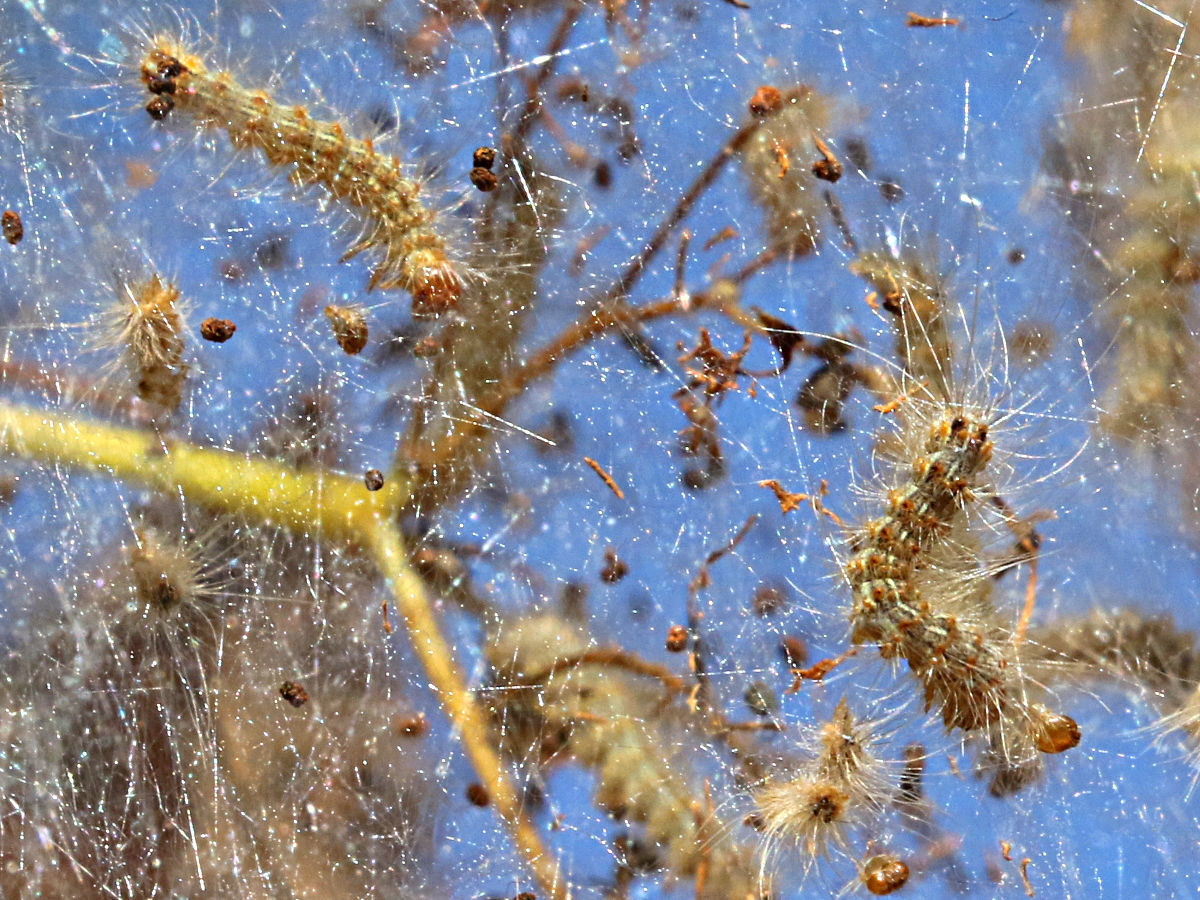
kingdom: Animalia
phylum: Arthropoda
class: Insecta
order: Lepidoptera
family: Erebidae
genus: Hyphantria
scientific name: Hyphantria cunea
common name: American white moth
